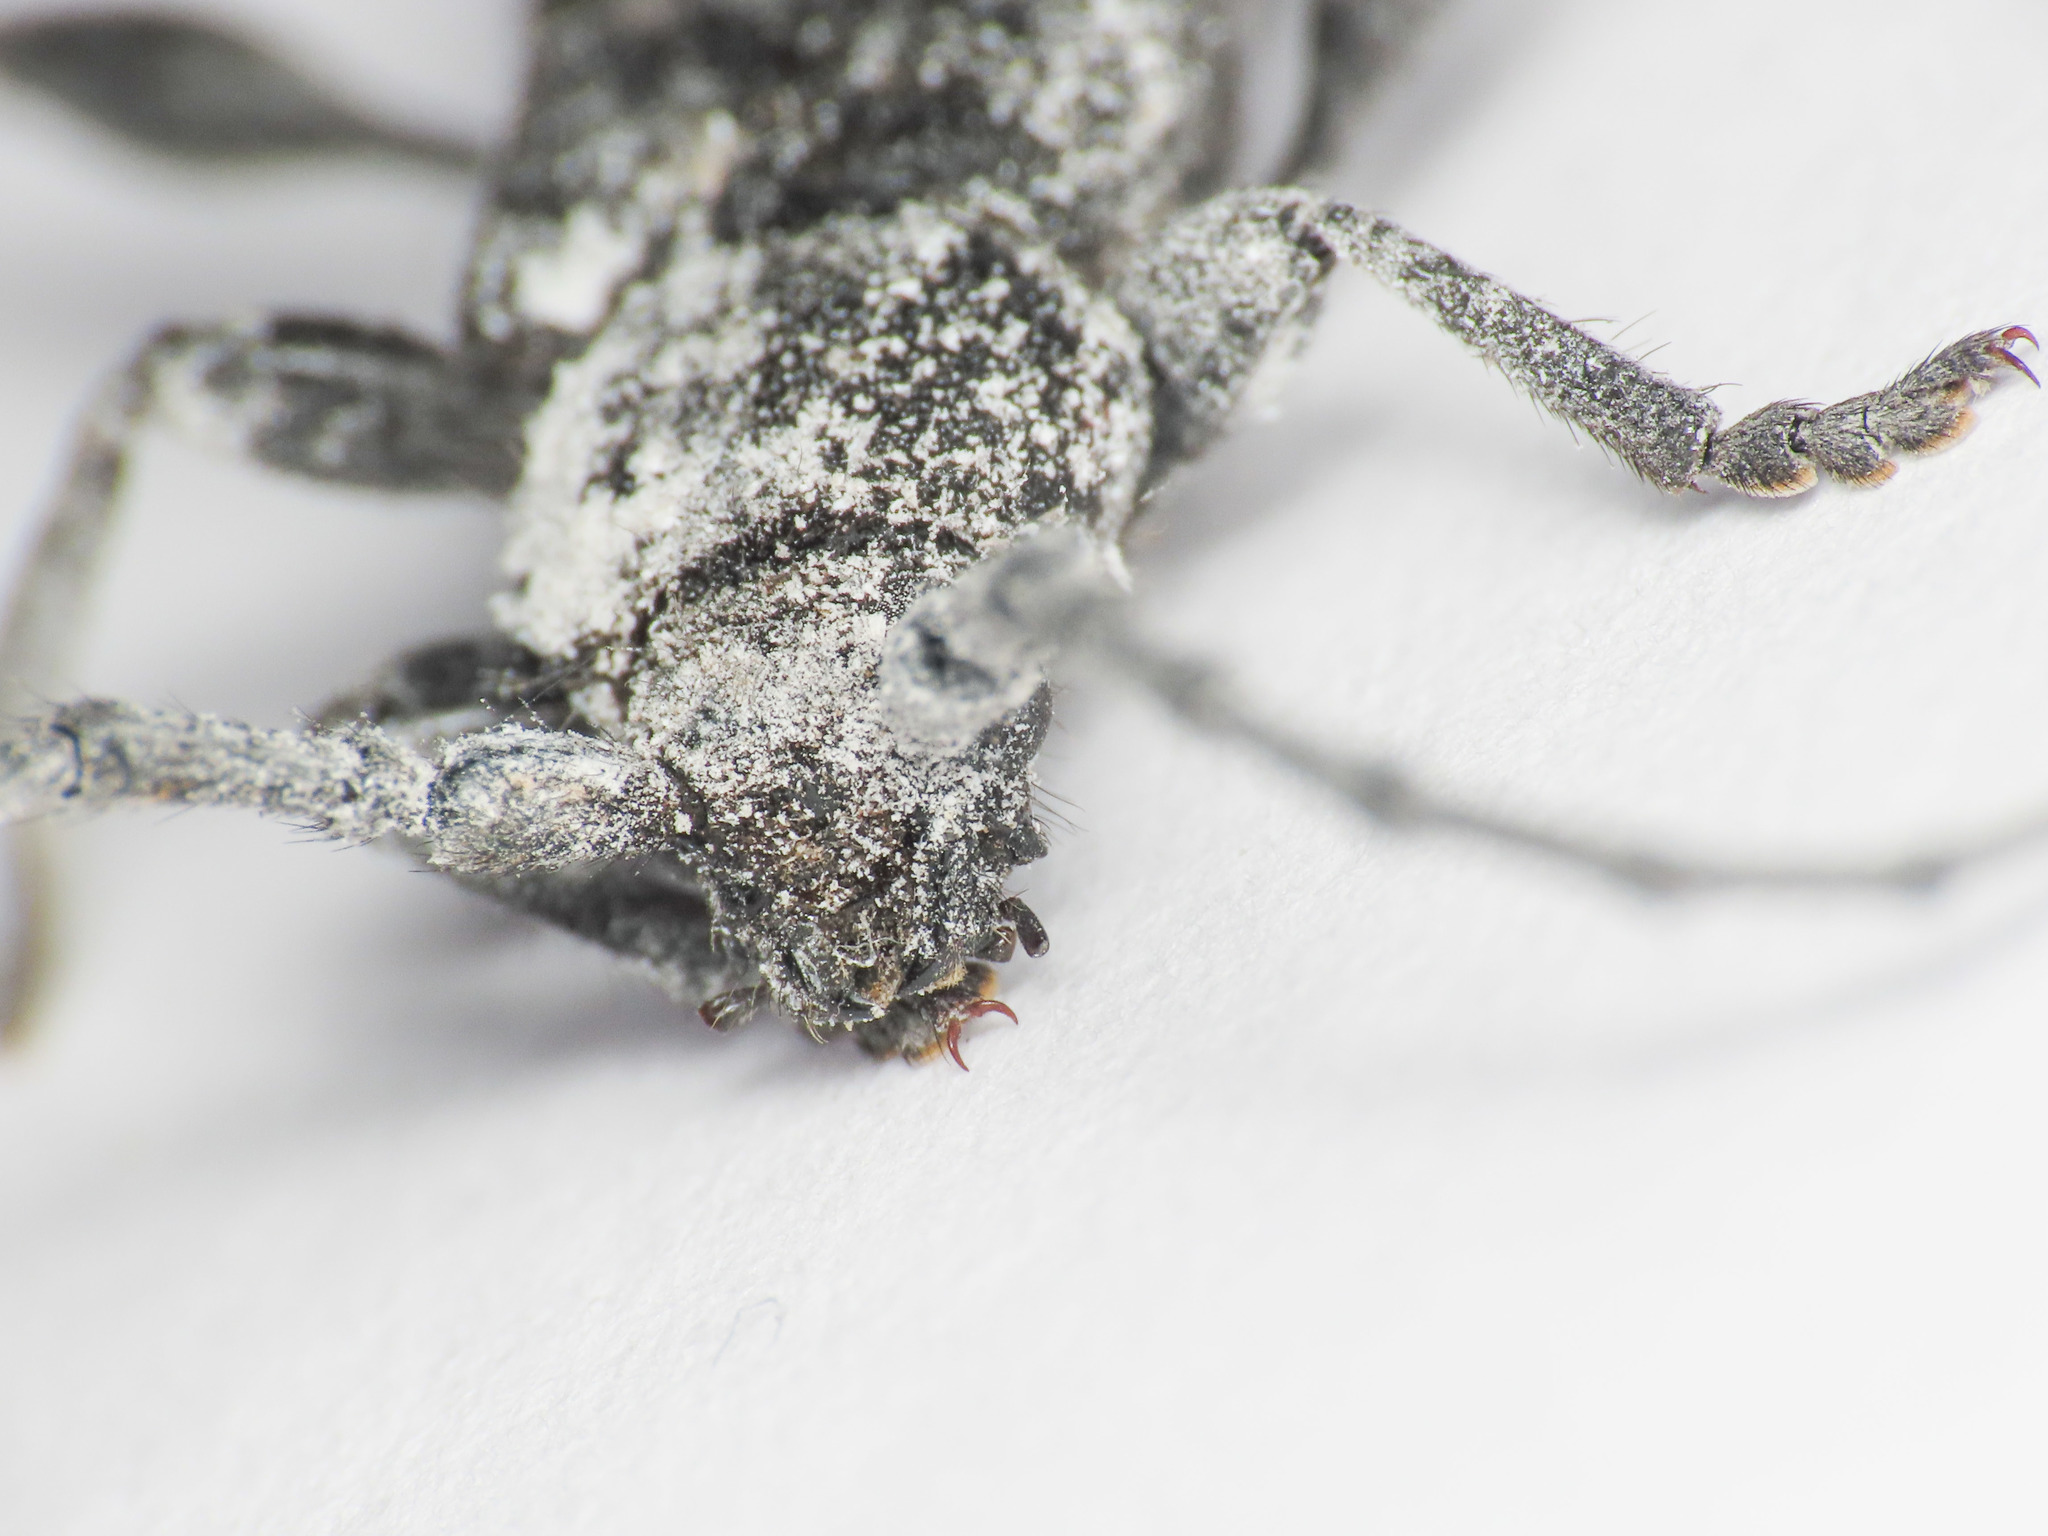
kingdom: Animalia
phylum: Arthropoda
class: Insecta
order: Coleoptera
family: Cerambycidae
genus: Ropalopus
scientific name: Ropalopus clavipes
